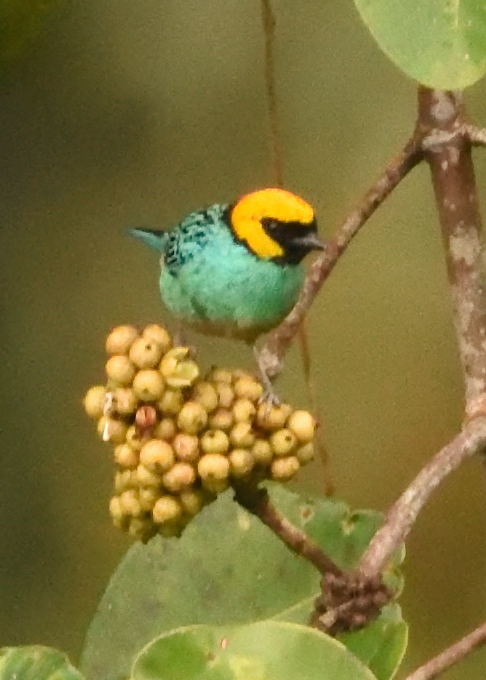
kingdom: Animalia
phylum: Chordata
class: Aves
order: Passeriformes
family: Thraupidae
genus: Tangara
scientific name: Tangara xanthocephala
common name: Saffron-crowned tanager
